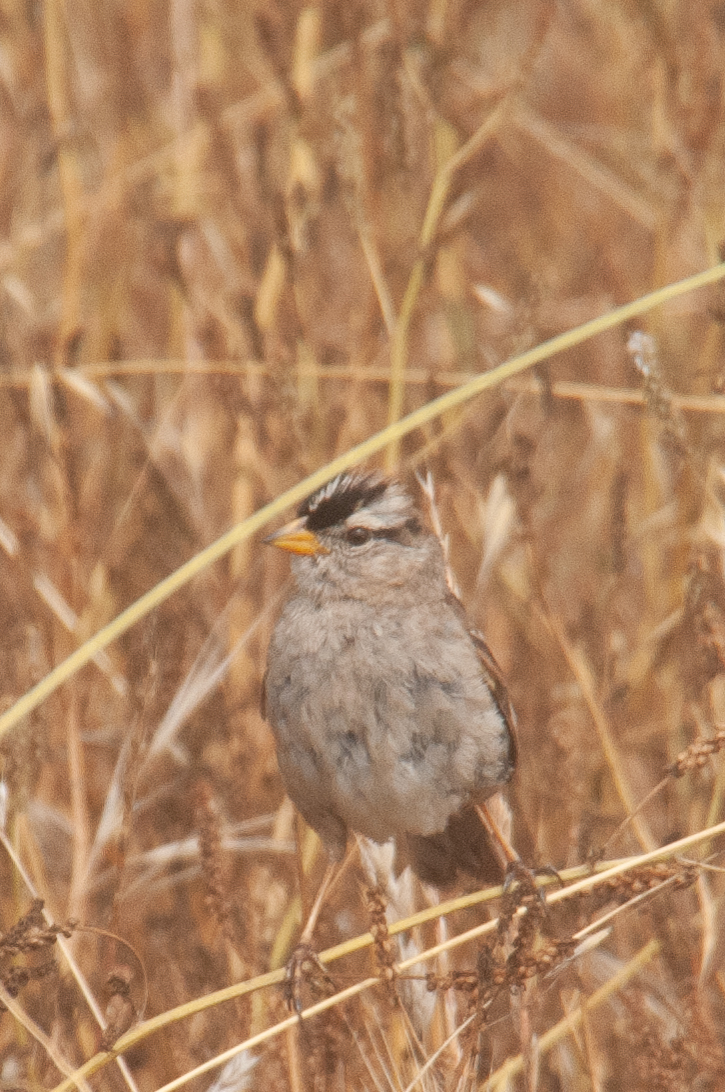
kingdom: Animalia
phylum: Chordata
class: Aves
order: Passeriformes
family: Passerellidae
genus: Zonotrichia
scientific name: Zonotrichia leucophrys
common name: White-crowned sparrow
